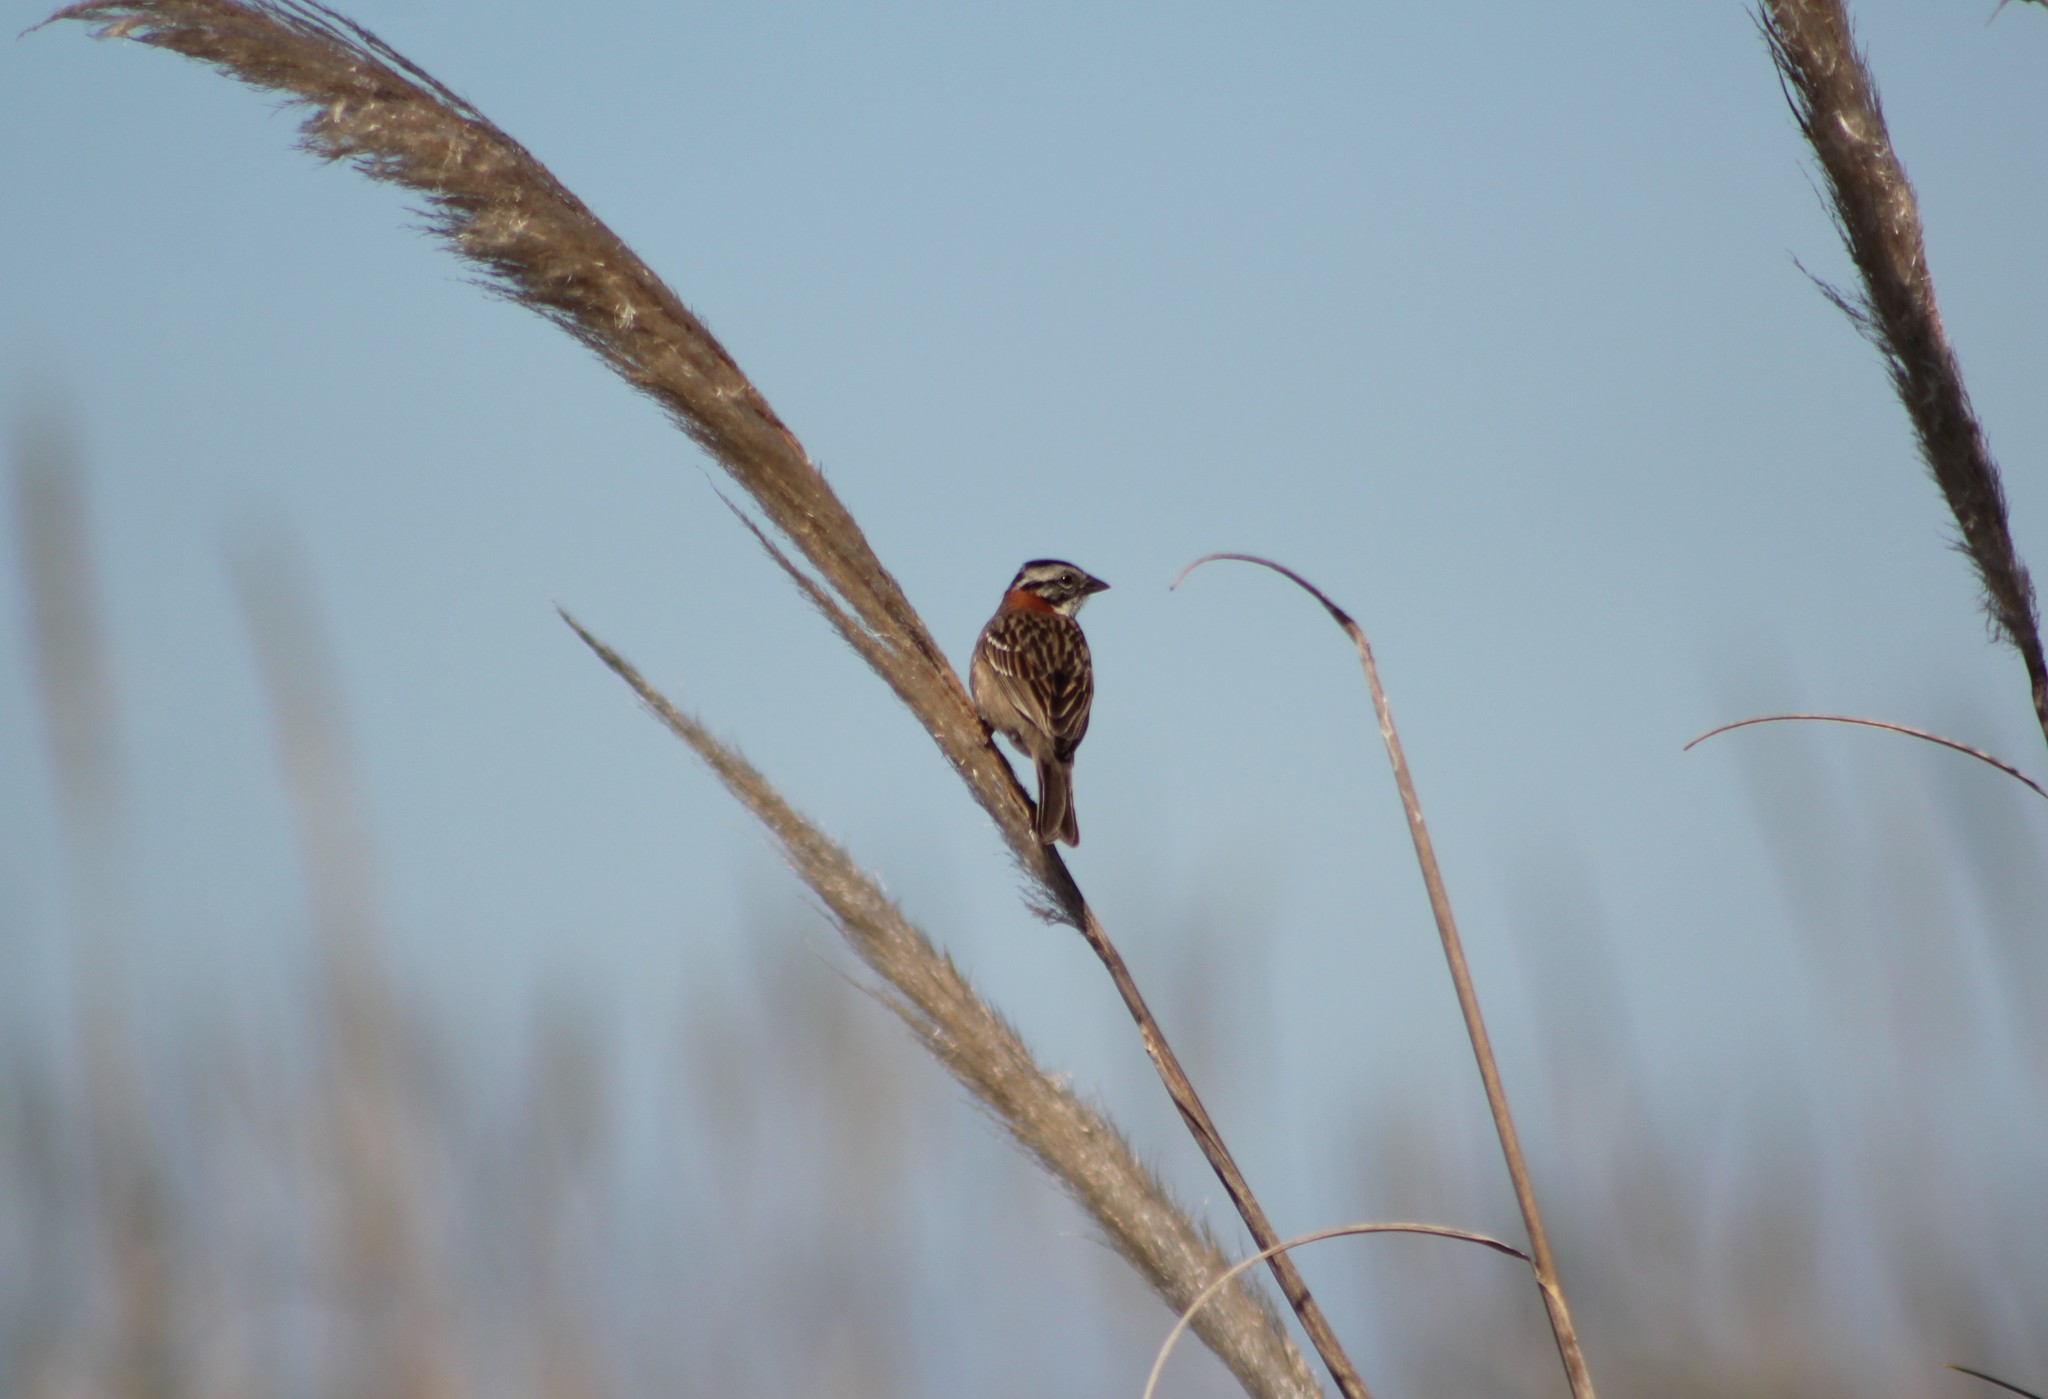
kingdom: Animalia
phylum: Chordata
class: Aves
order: Passeriformes
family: Passerellidae
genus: Zonotrichia
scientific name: Zonotrichia capensis
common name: Rufous-collared sparrow
